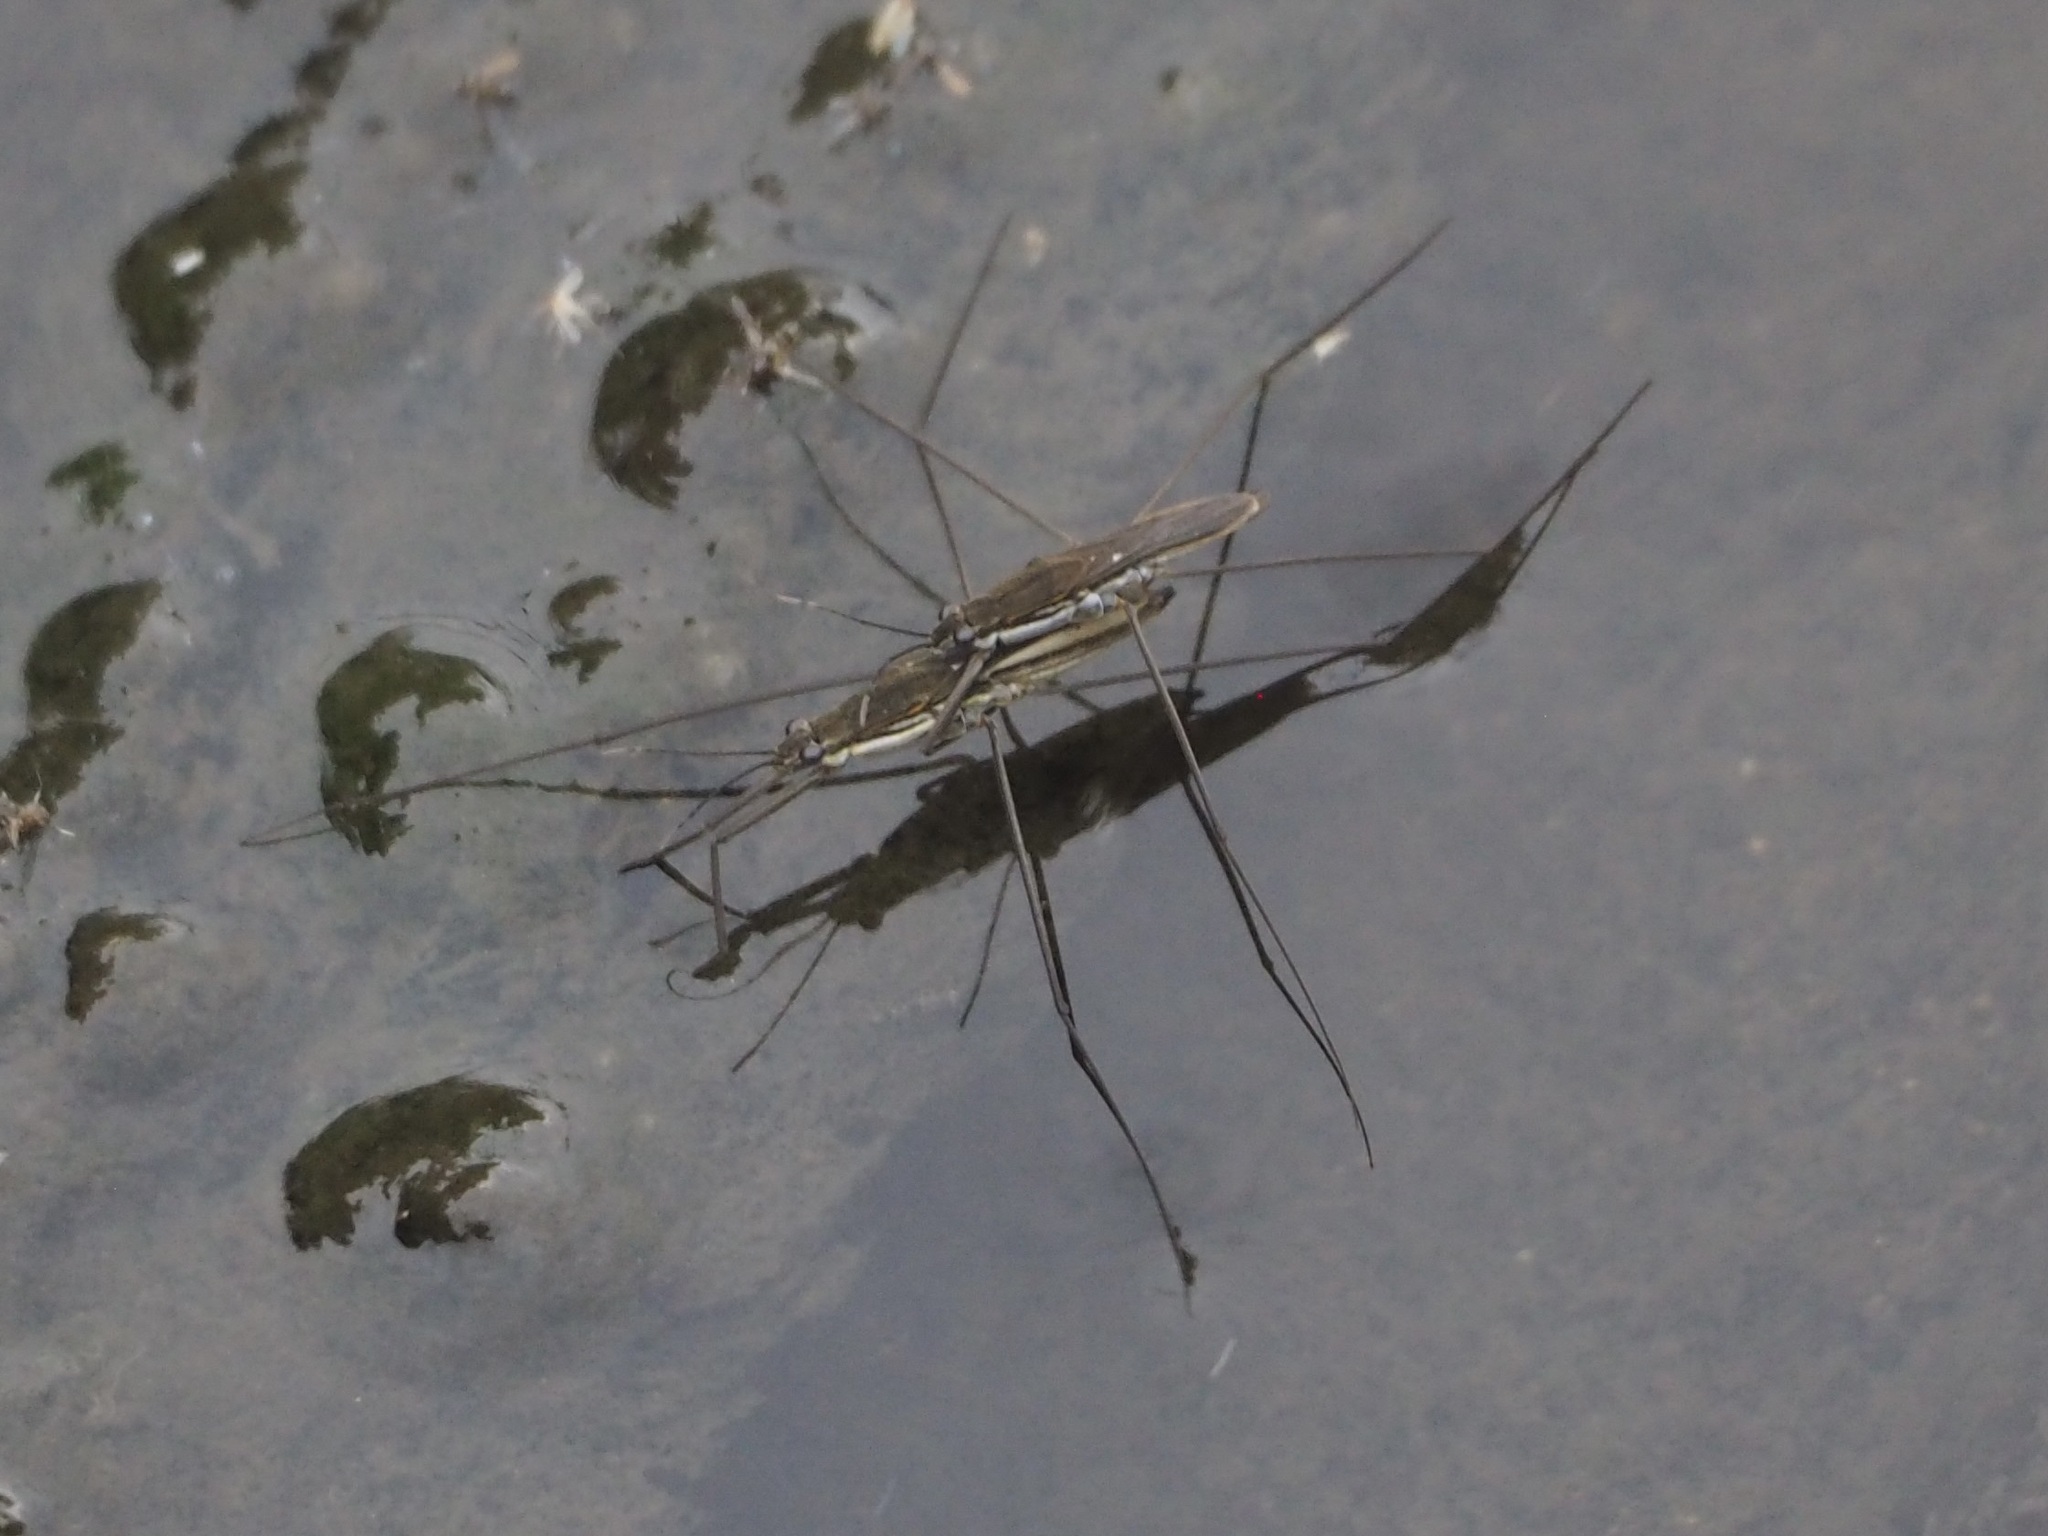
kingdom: Animalia
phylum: Arthropoda
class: Insecta
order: Hemiptera
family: Gerridae
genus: Aquarius
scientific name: Aquarius paludum
